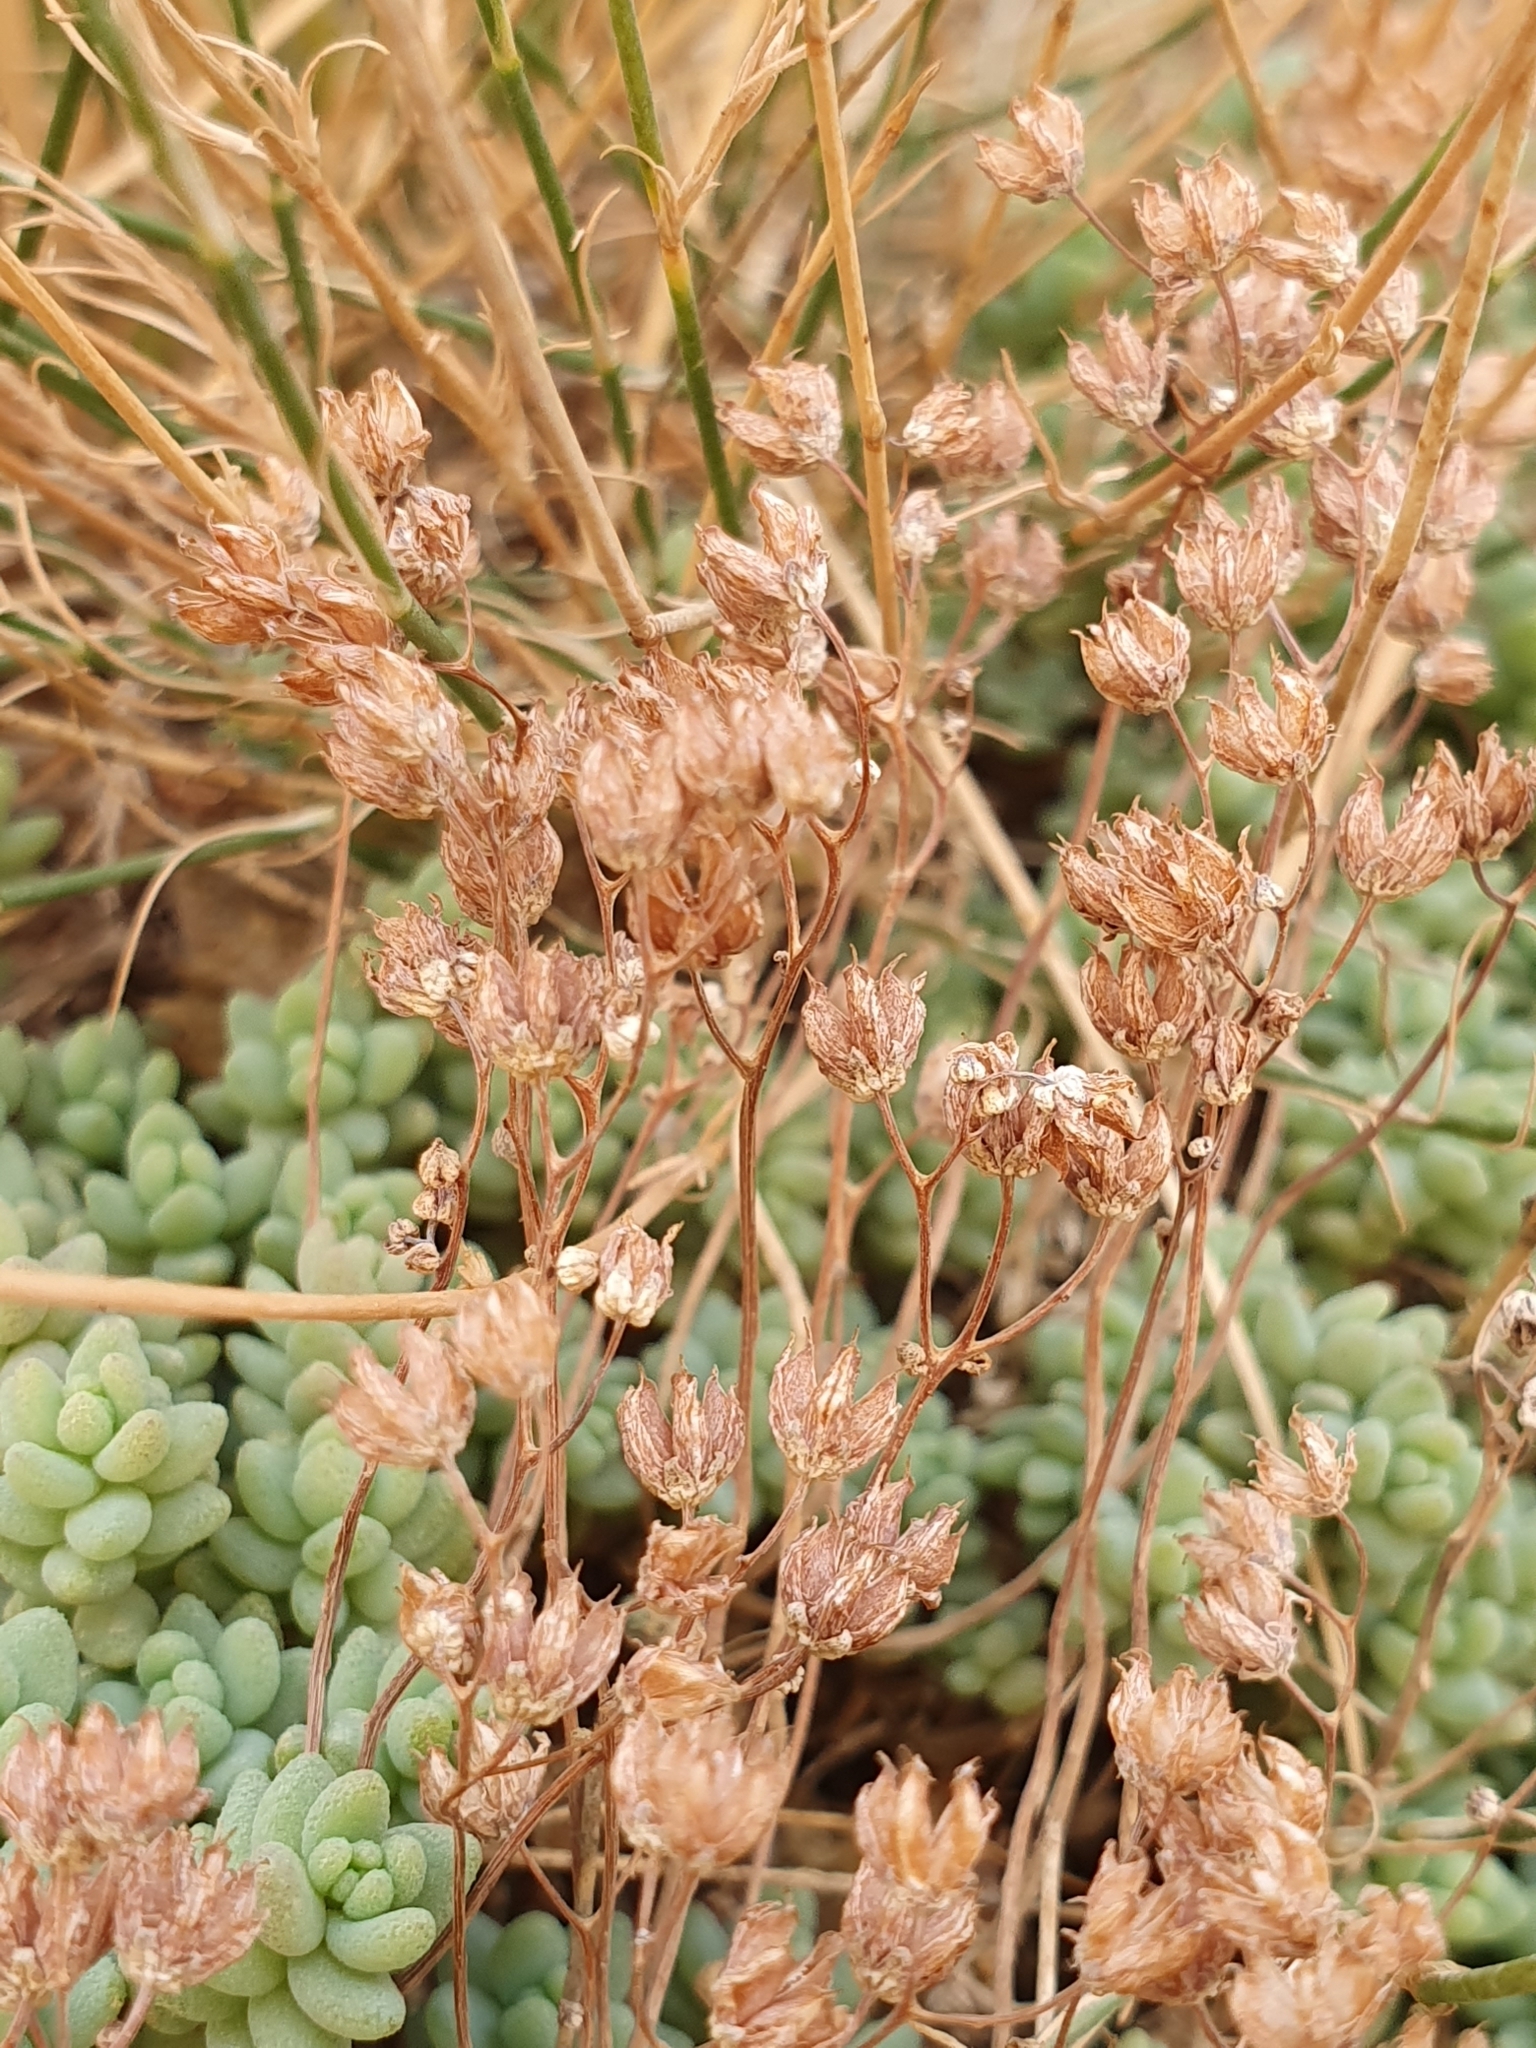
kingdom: Plantae
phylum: Tracheophyta
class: Magnoliopsida
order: Saxifragales
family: Crassulaceae
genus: Sedum
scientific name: Sedum dasyphyllum
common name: Thick-leaf stonecrop
